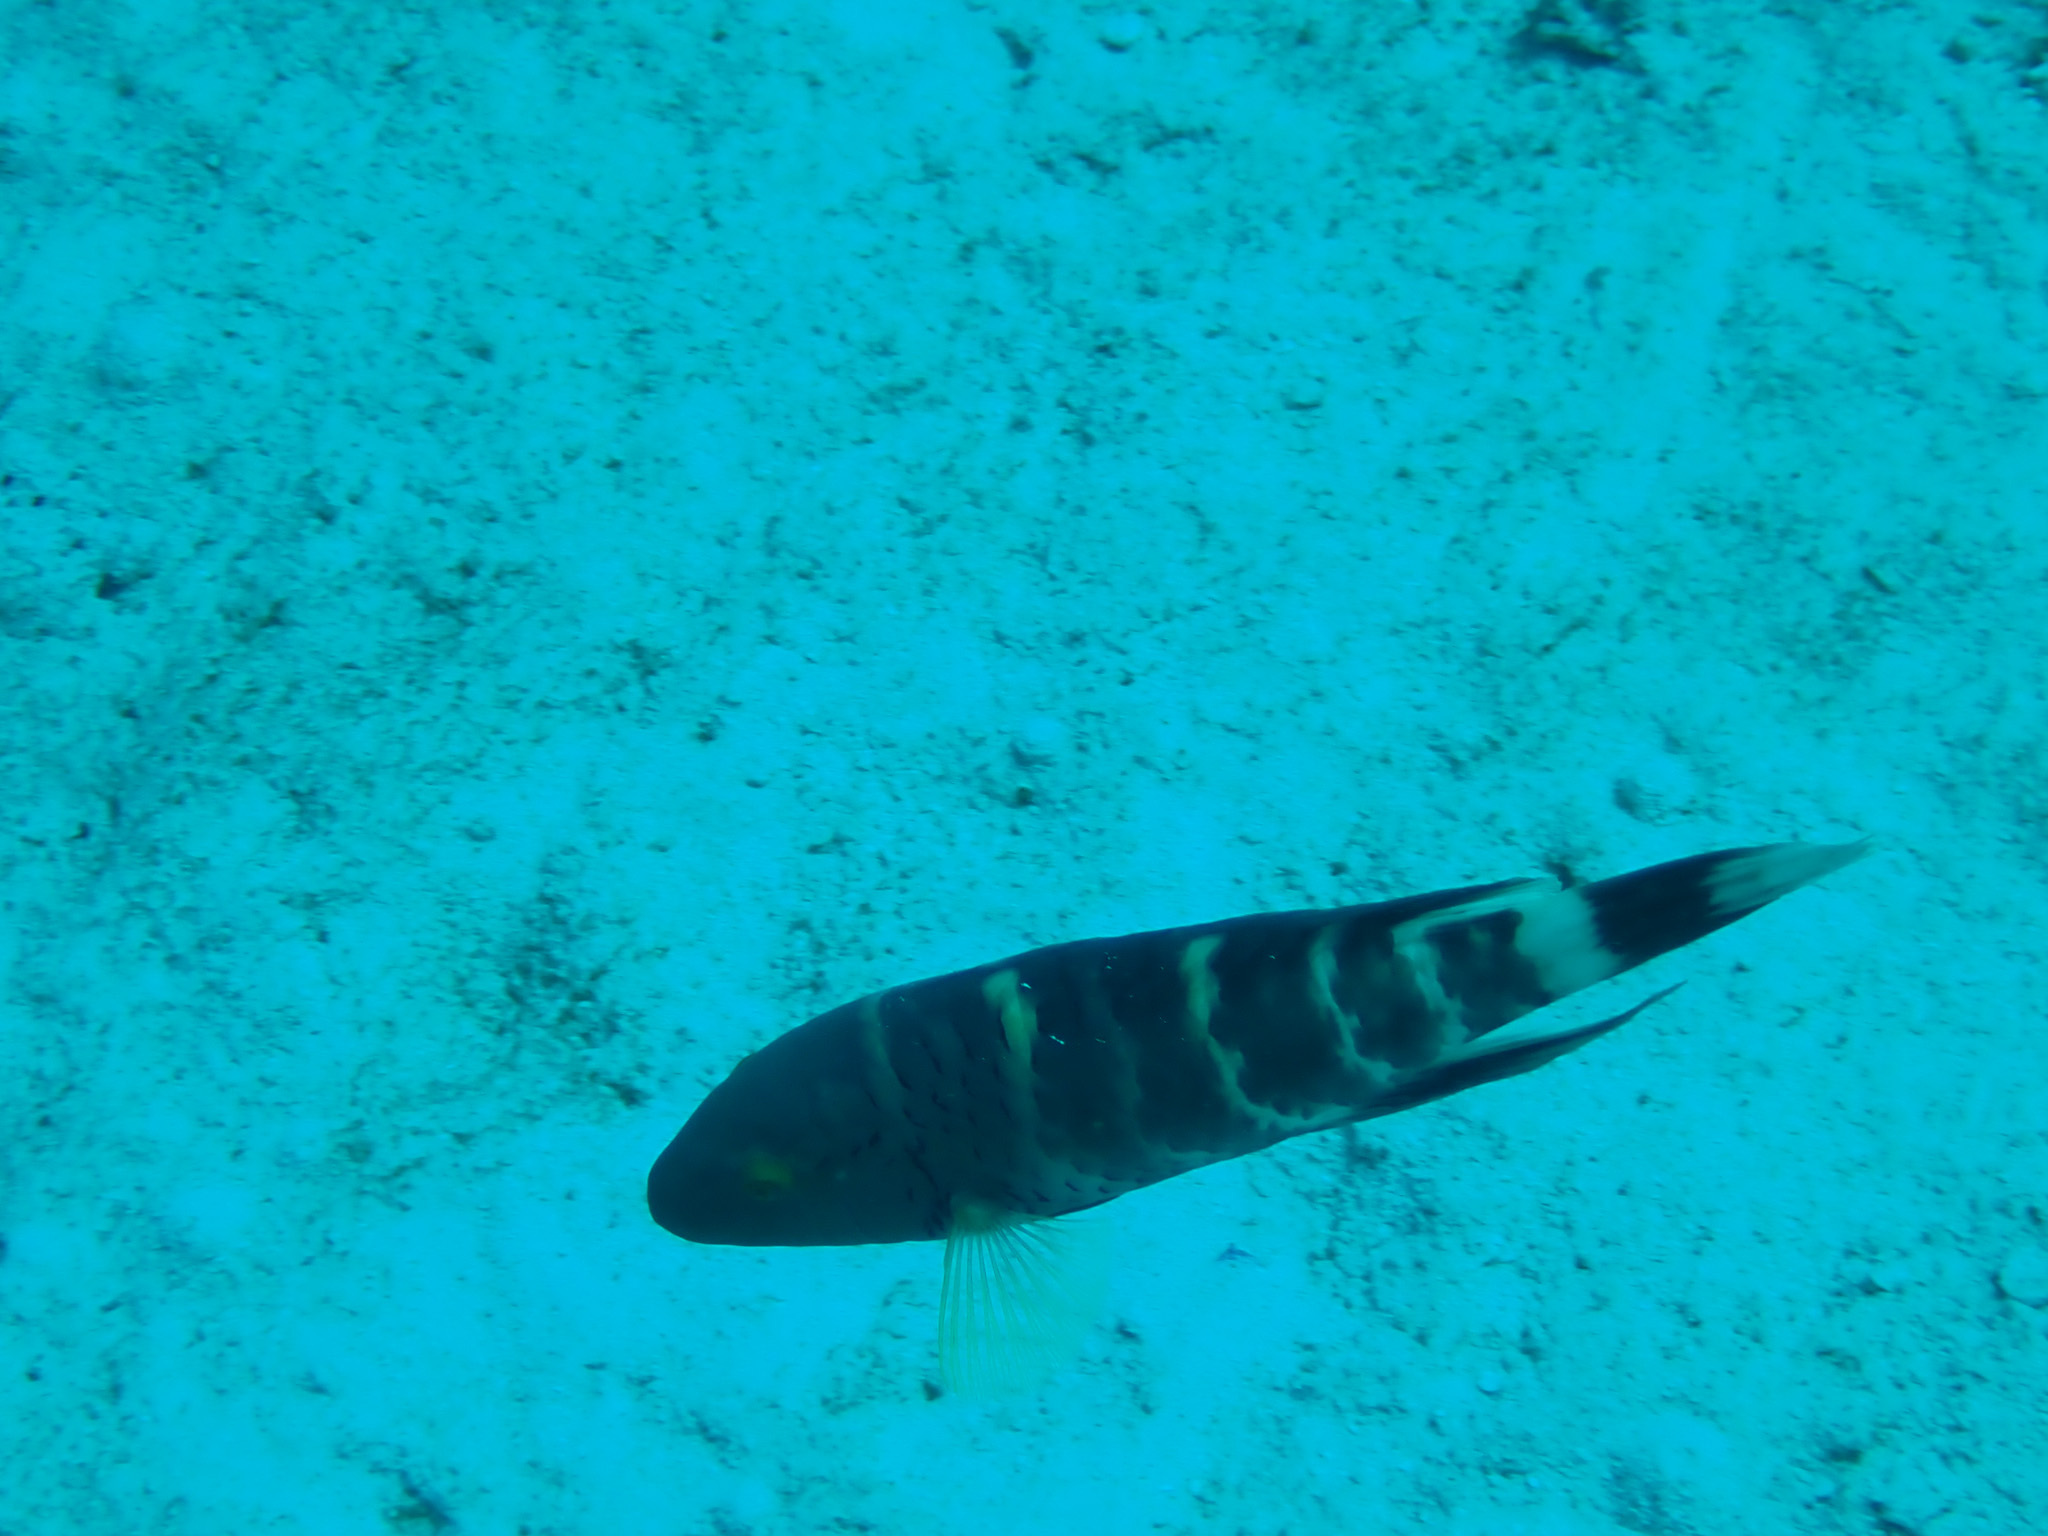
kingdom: Animalia
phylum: Chordata
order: Perciformes
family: Labridae
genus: Cheilinus
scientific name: Cheilinus fasciatus
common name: Red-breasted wrasse
